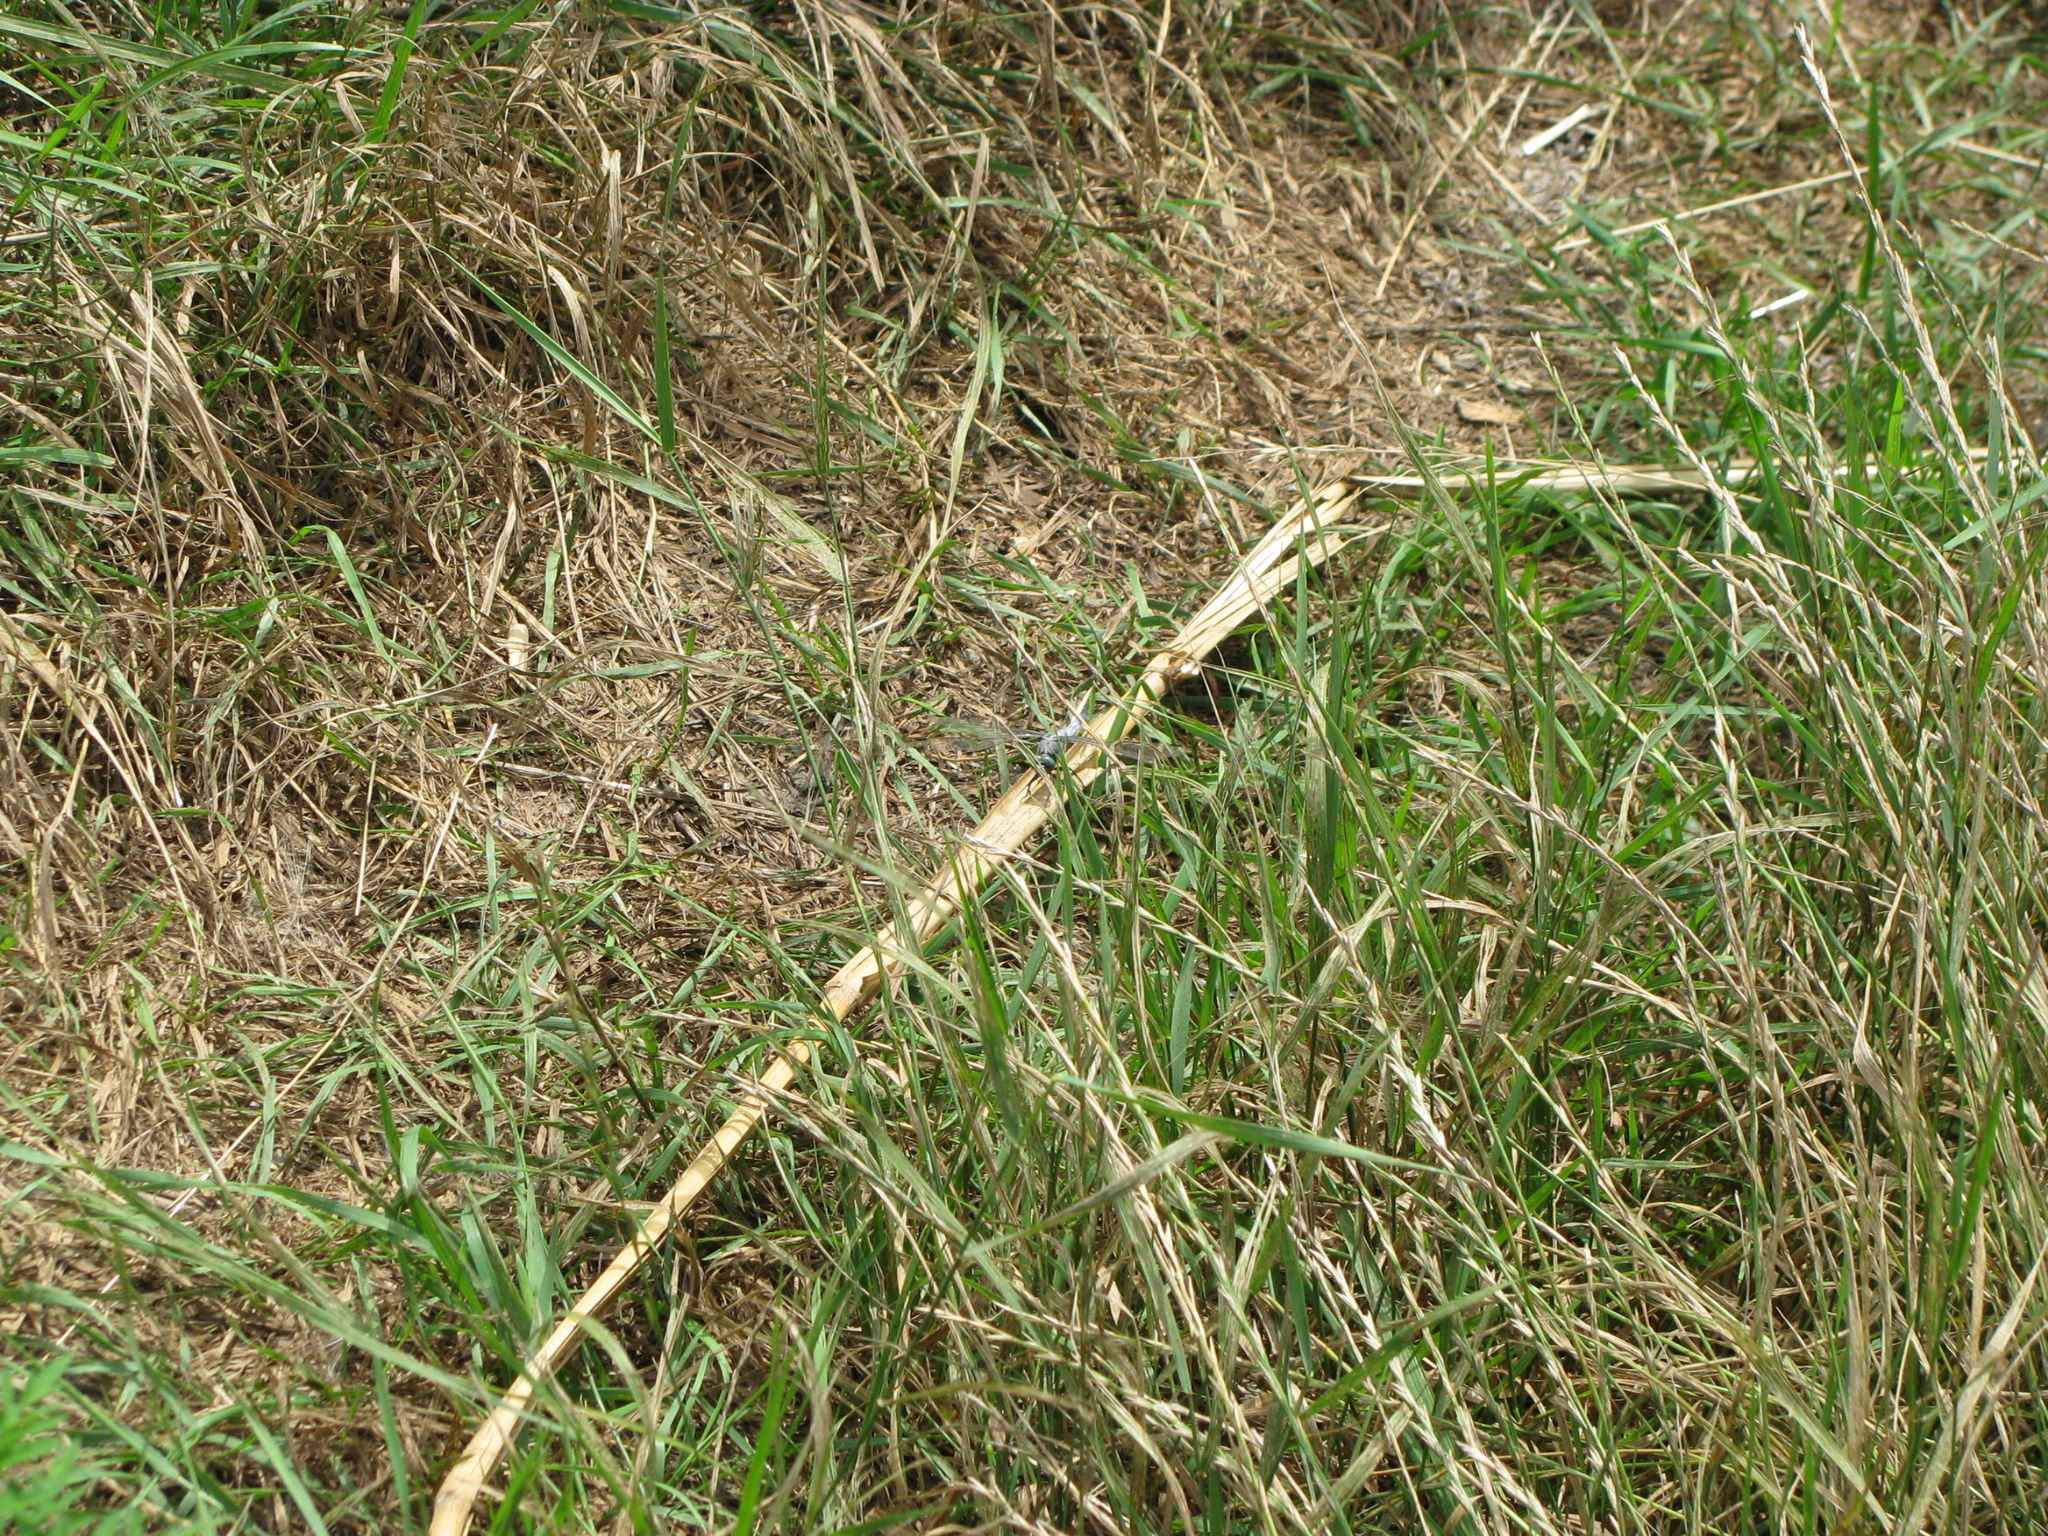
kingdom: Animalia
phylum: Arthropoda
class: Insecta
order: Odonata
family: Libellulidae
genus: Orthetrum
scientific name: Orthetrum cancellatum
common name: Black-tailed skimmer
